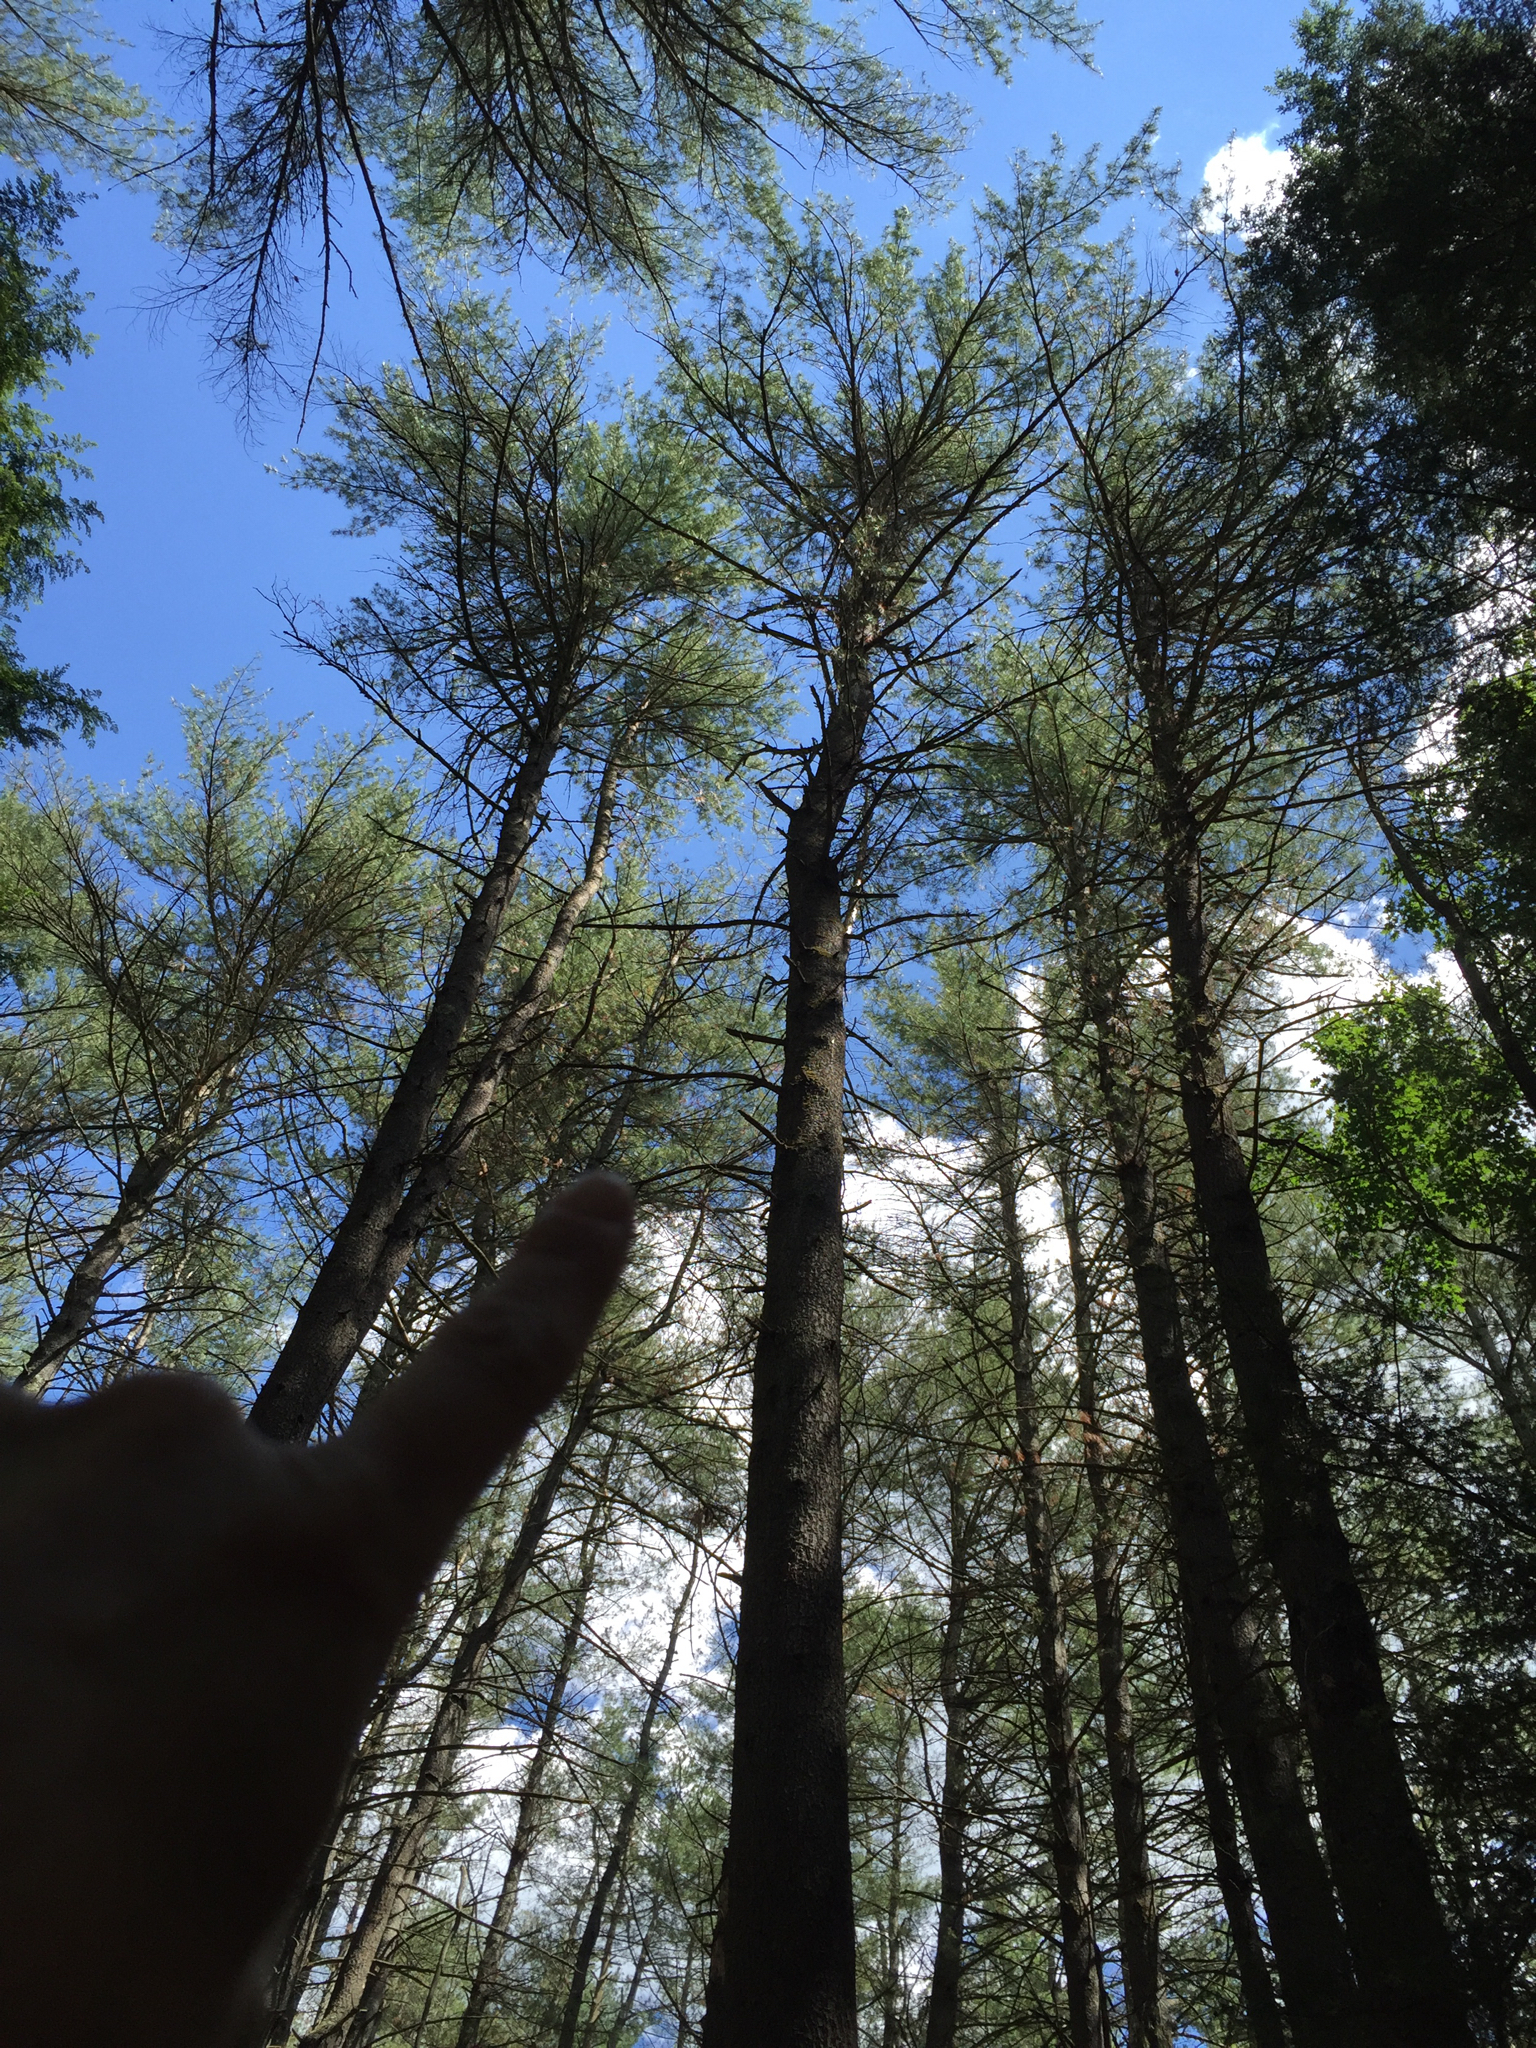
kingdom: Plantae
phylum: Tracheophyta
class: Pinopsida
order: Pinales
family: Pinaceae
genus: Pinus
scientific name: Pinus strobus
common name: Weymouth pine
